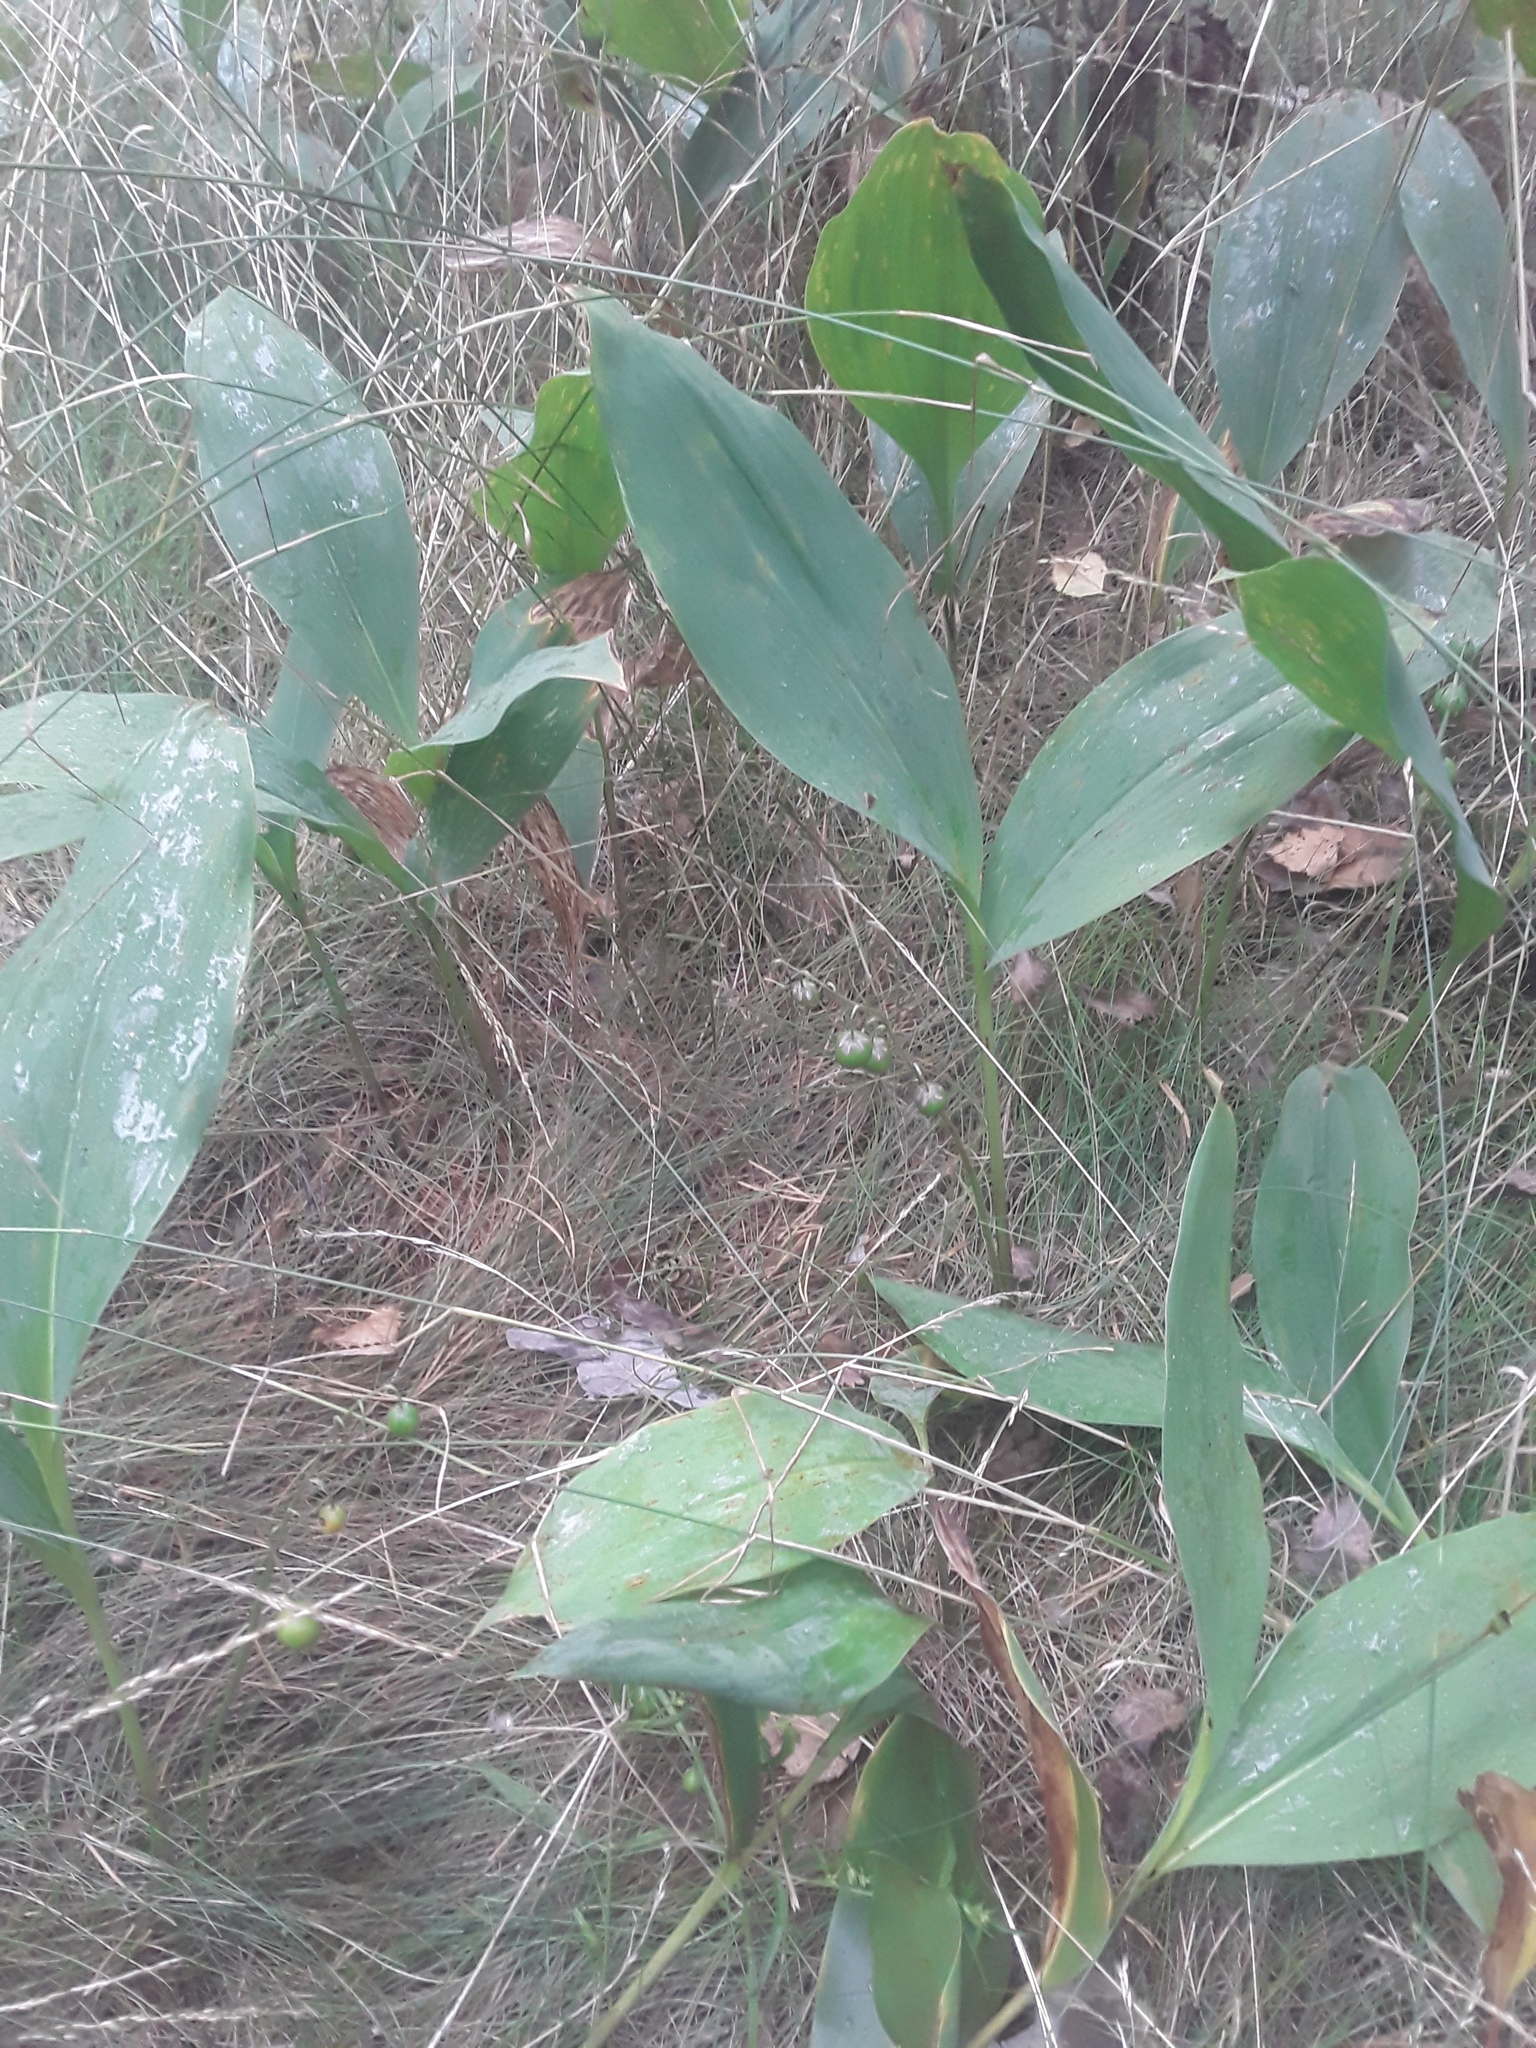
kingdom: Plantae
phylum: Tracheophyta
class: Liliopsida
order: Asparagales
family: Asparagaceae
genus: Convallaria
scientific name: Convallaria majalis
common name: Lily-of-the-valley
